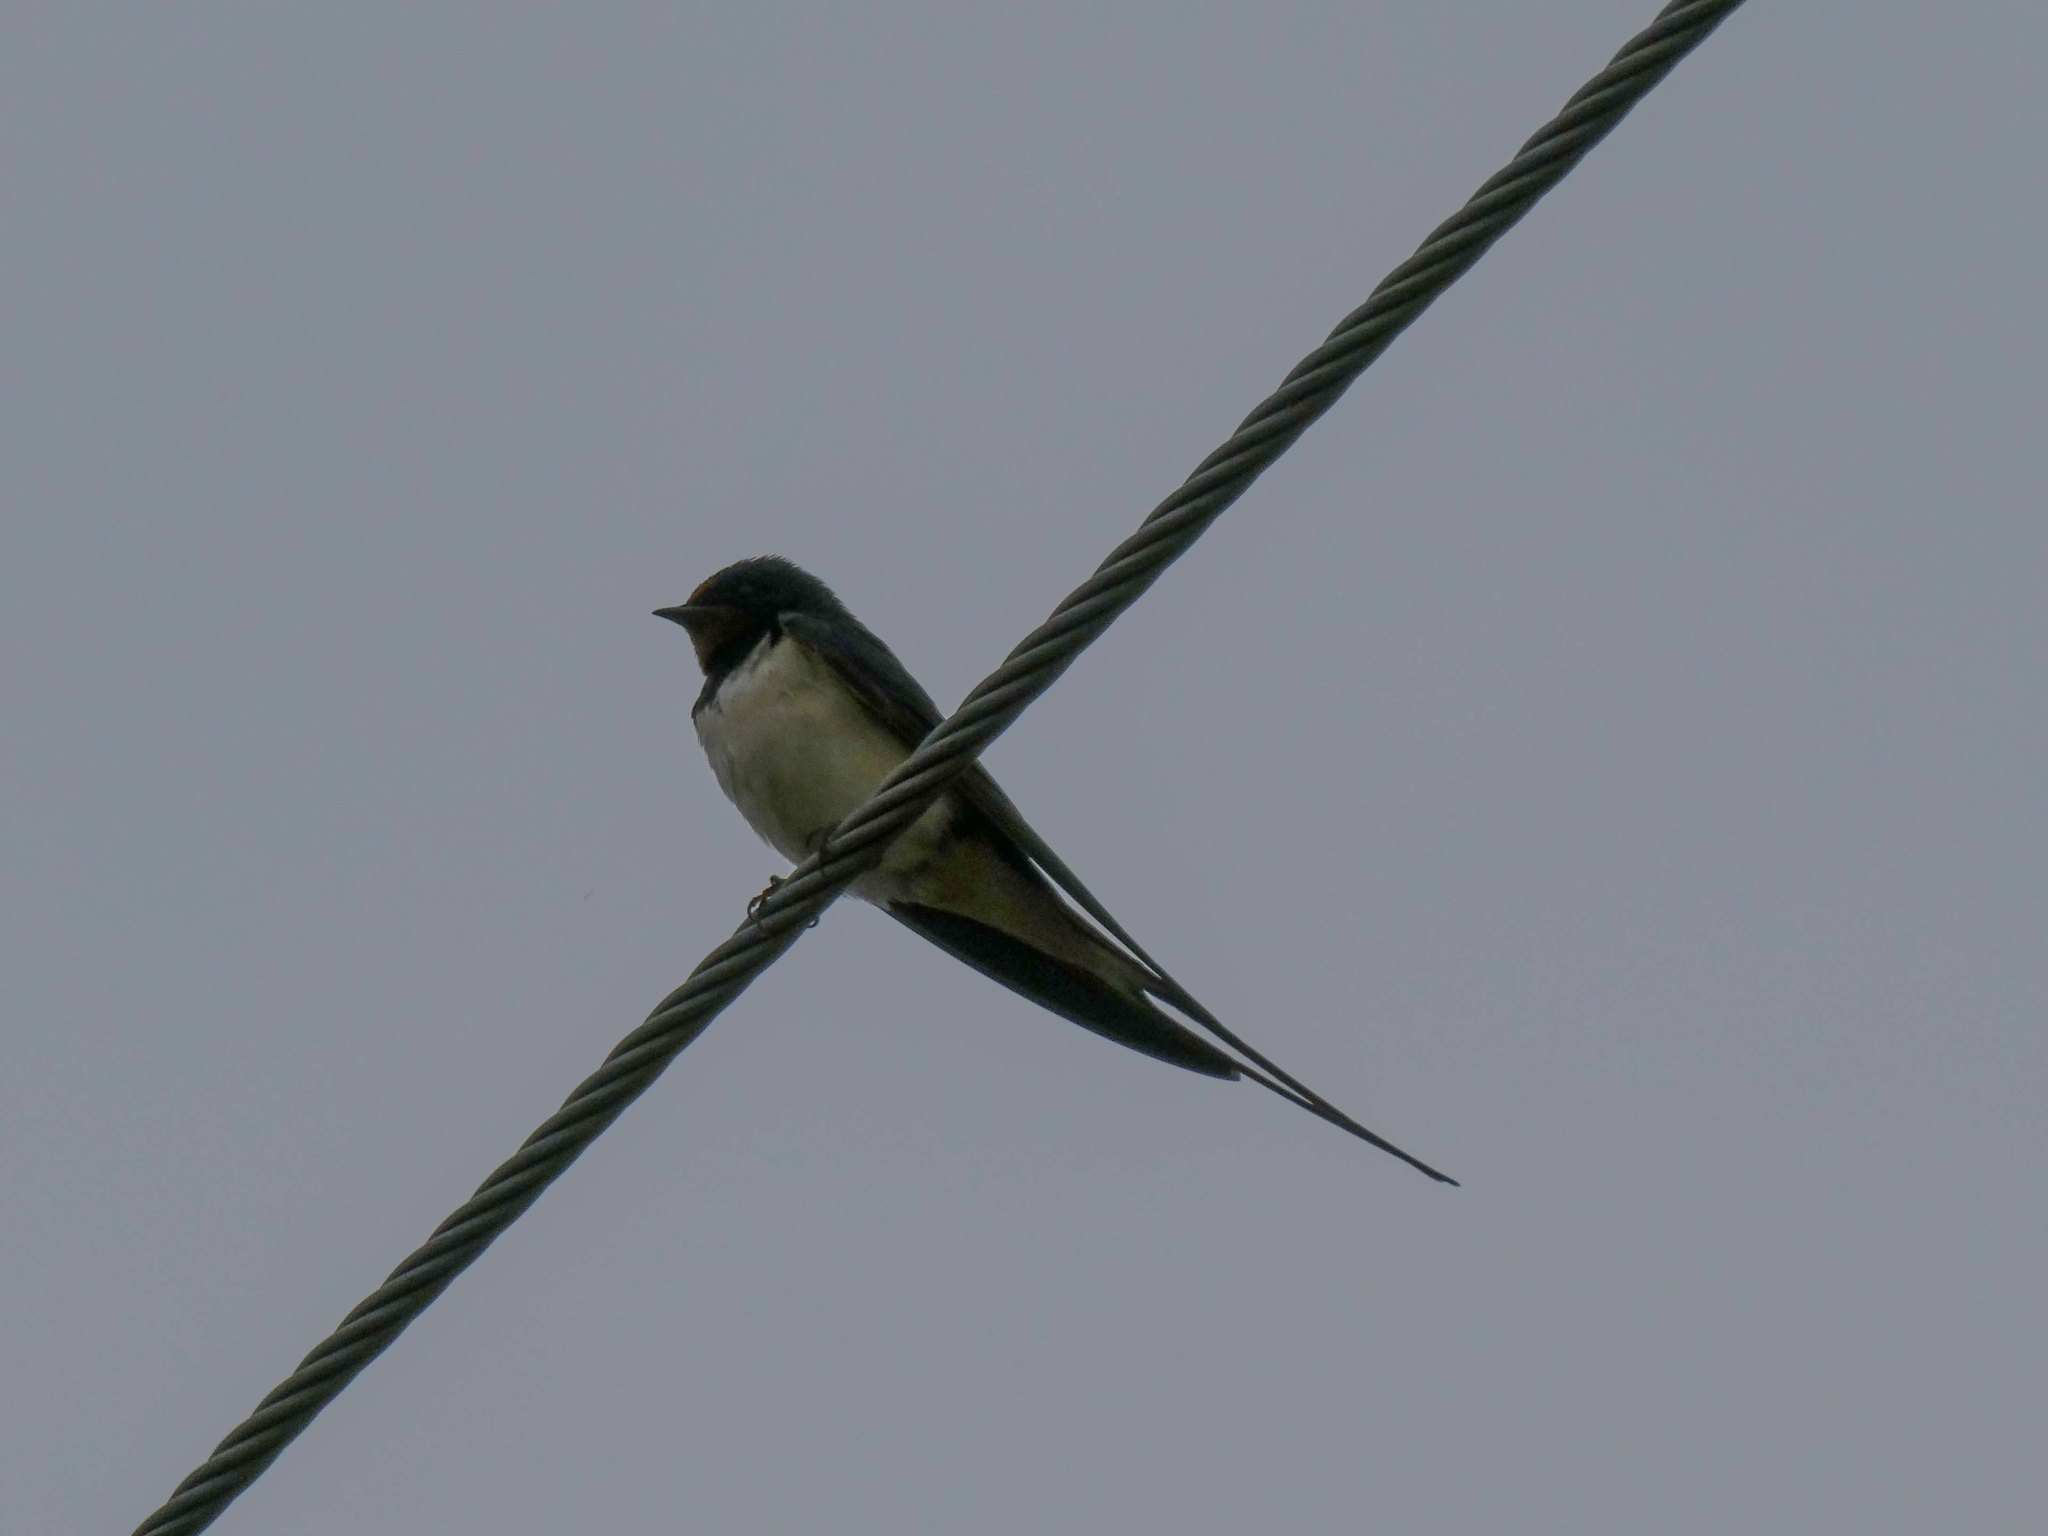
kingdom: Animalia
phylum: Chordata
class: Aves
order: Passeriformes
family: Hirundinidae
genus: Hirundo
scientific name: Hirundo rustica
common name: Barn swallow
